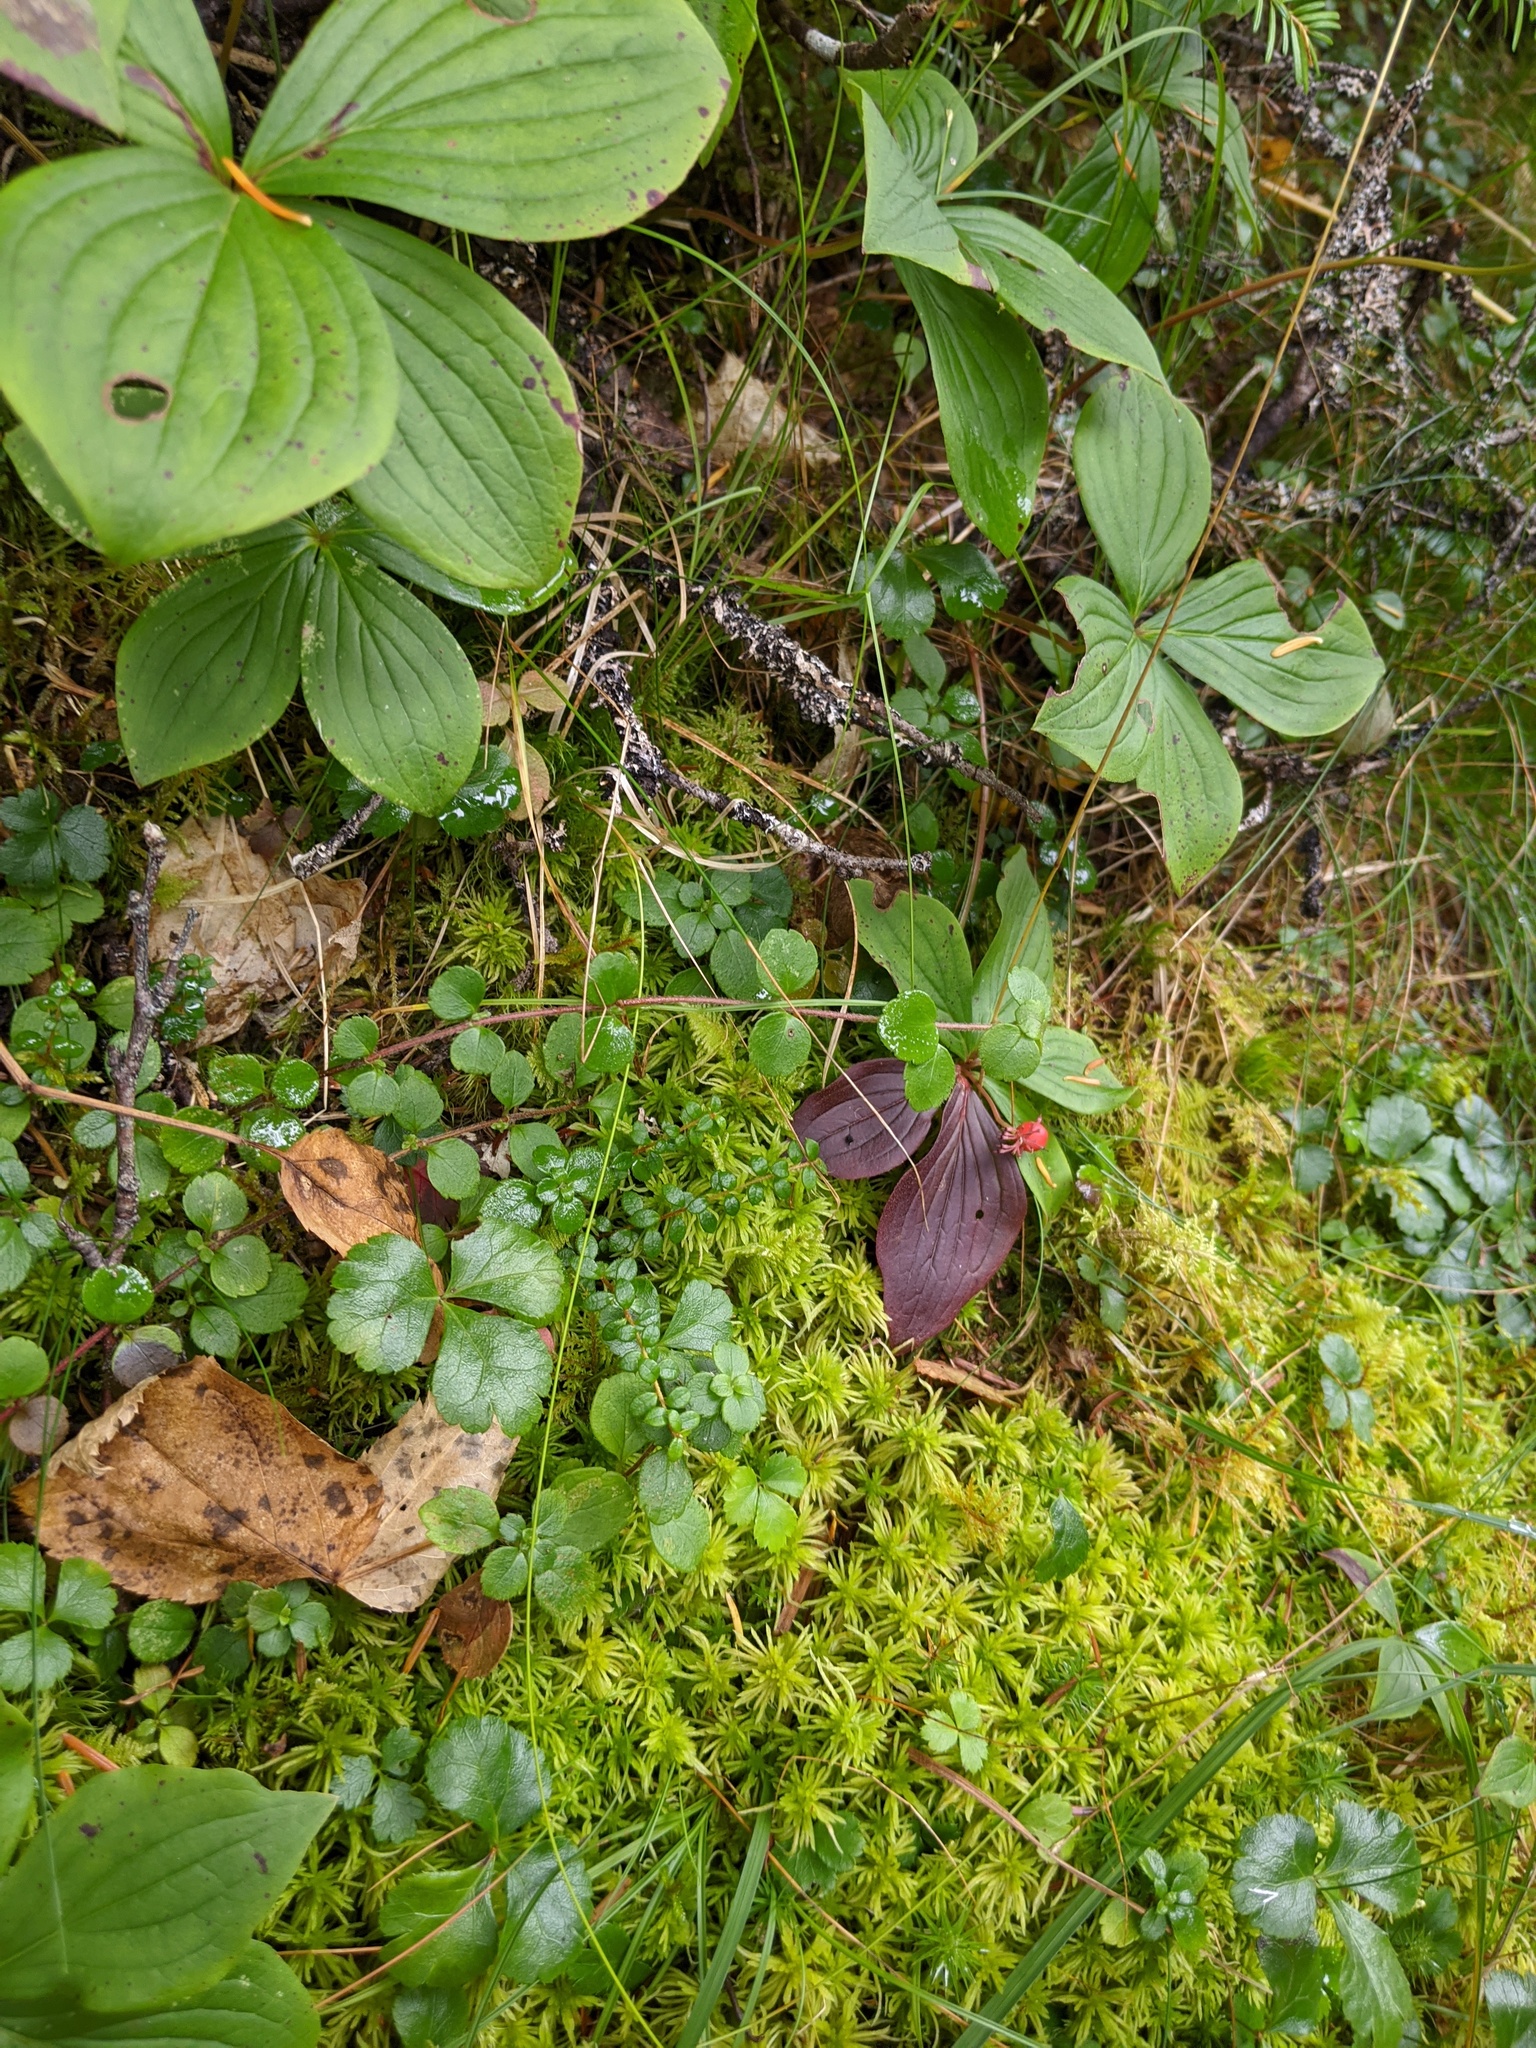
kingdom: Plantae
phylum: Tracheophyta
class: Magnoliopsida
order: Ericales
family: Ericaceae
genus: Gaultheria
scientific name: Gaultheria hispidula
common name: Cancer wintergreen
